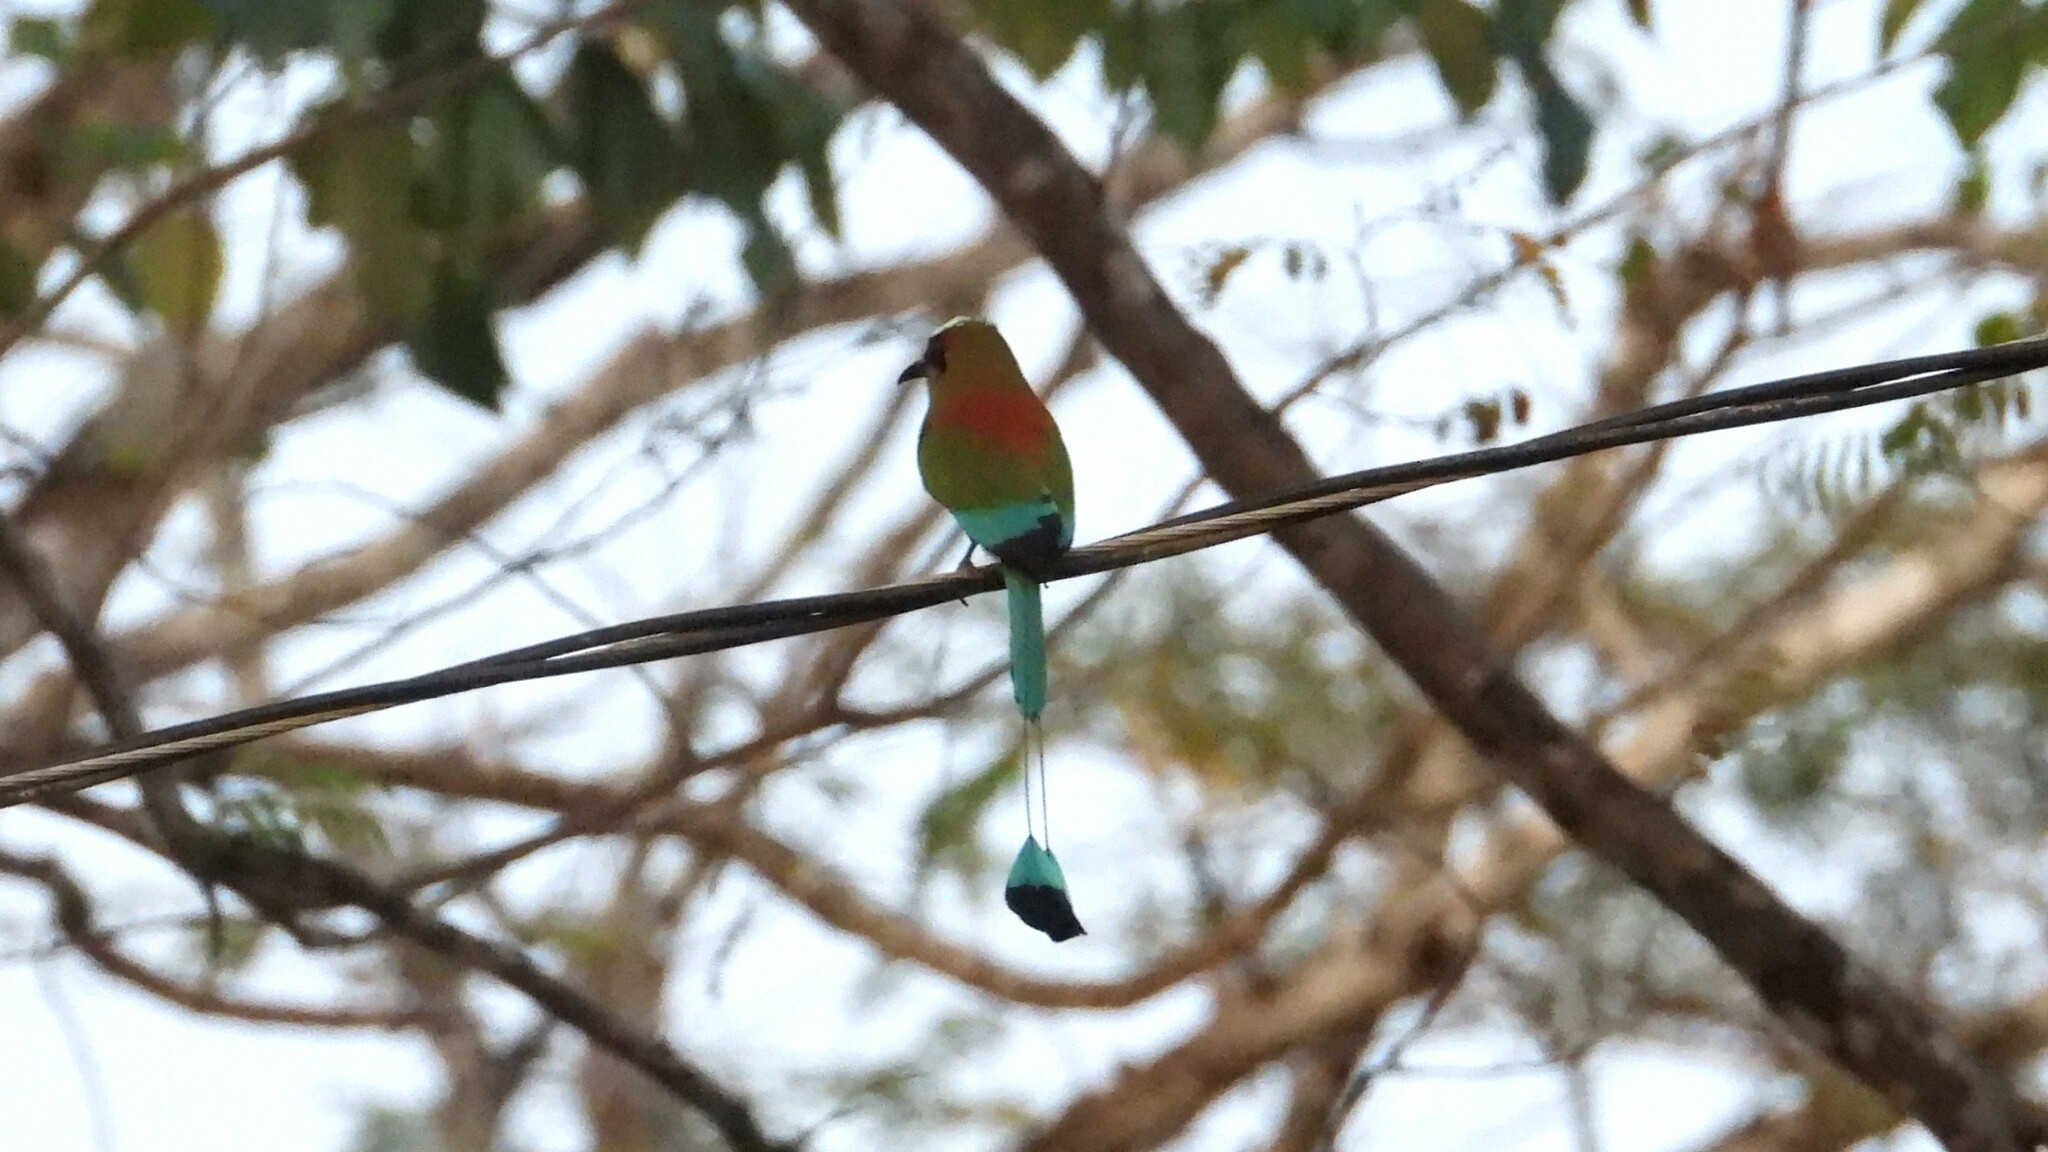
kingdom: Animalia
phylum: Chordata
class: Aves
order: Coraciiformes
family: Momotidae
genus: Eumomota
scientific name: Eumomota superciliosa
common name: Turquoise-browed motmot
